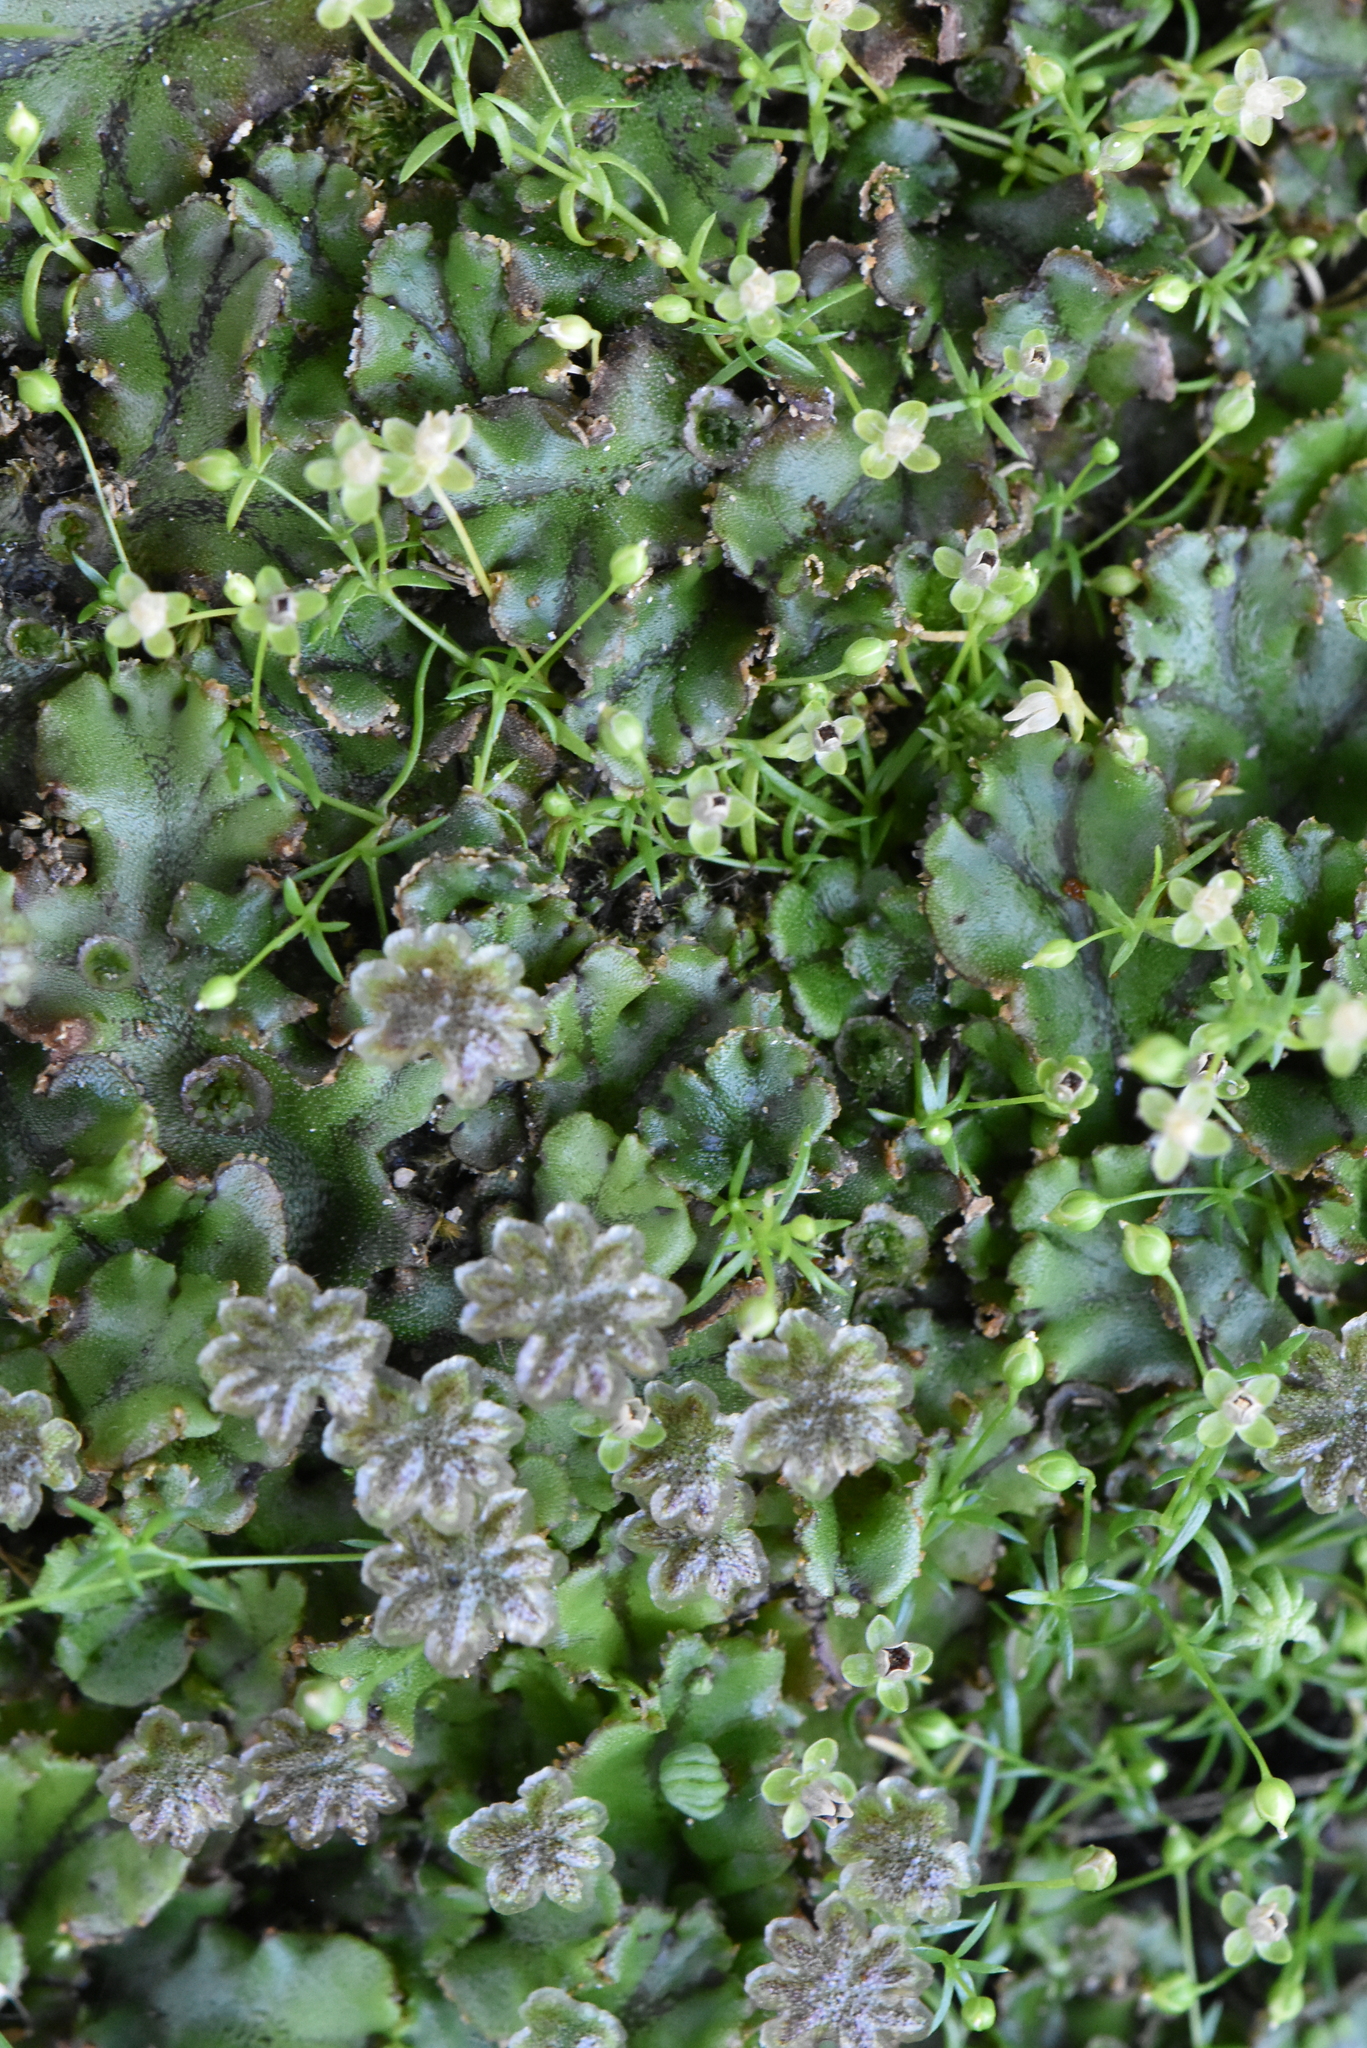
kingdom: Plantae
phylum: Marchantiophyta
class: Marchantiopsida
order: Marchantiales
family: Marchantiaceae
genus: Marchantia
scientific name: Marchantia polymorpha
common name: Common liverwort
